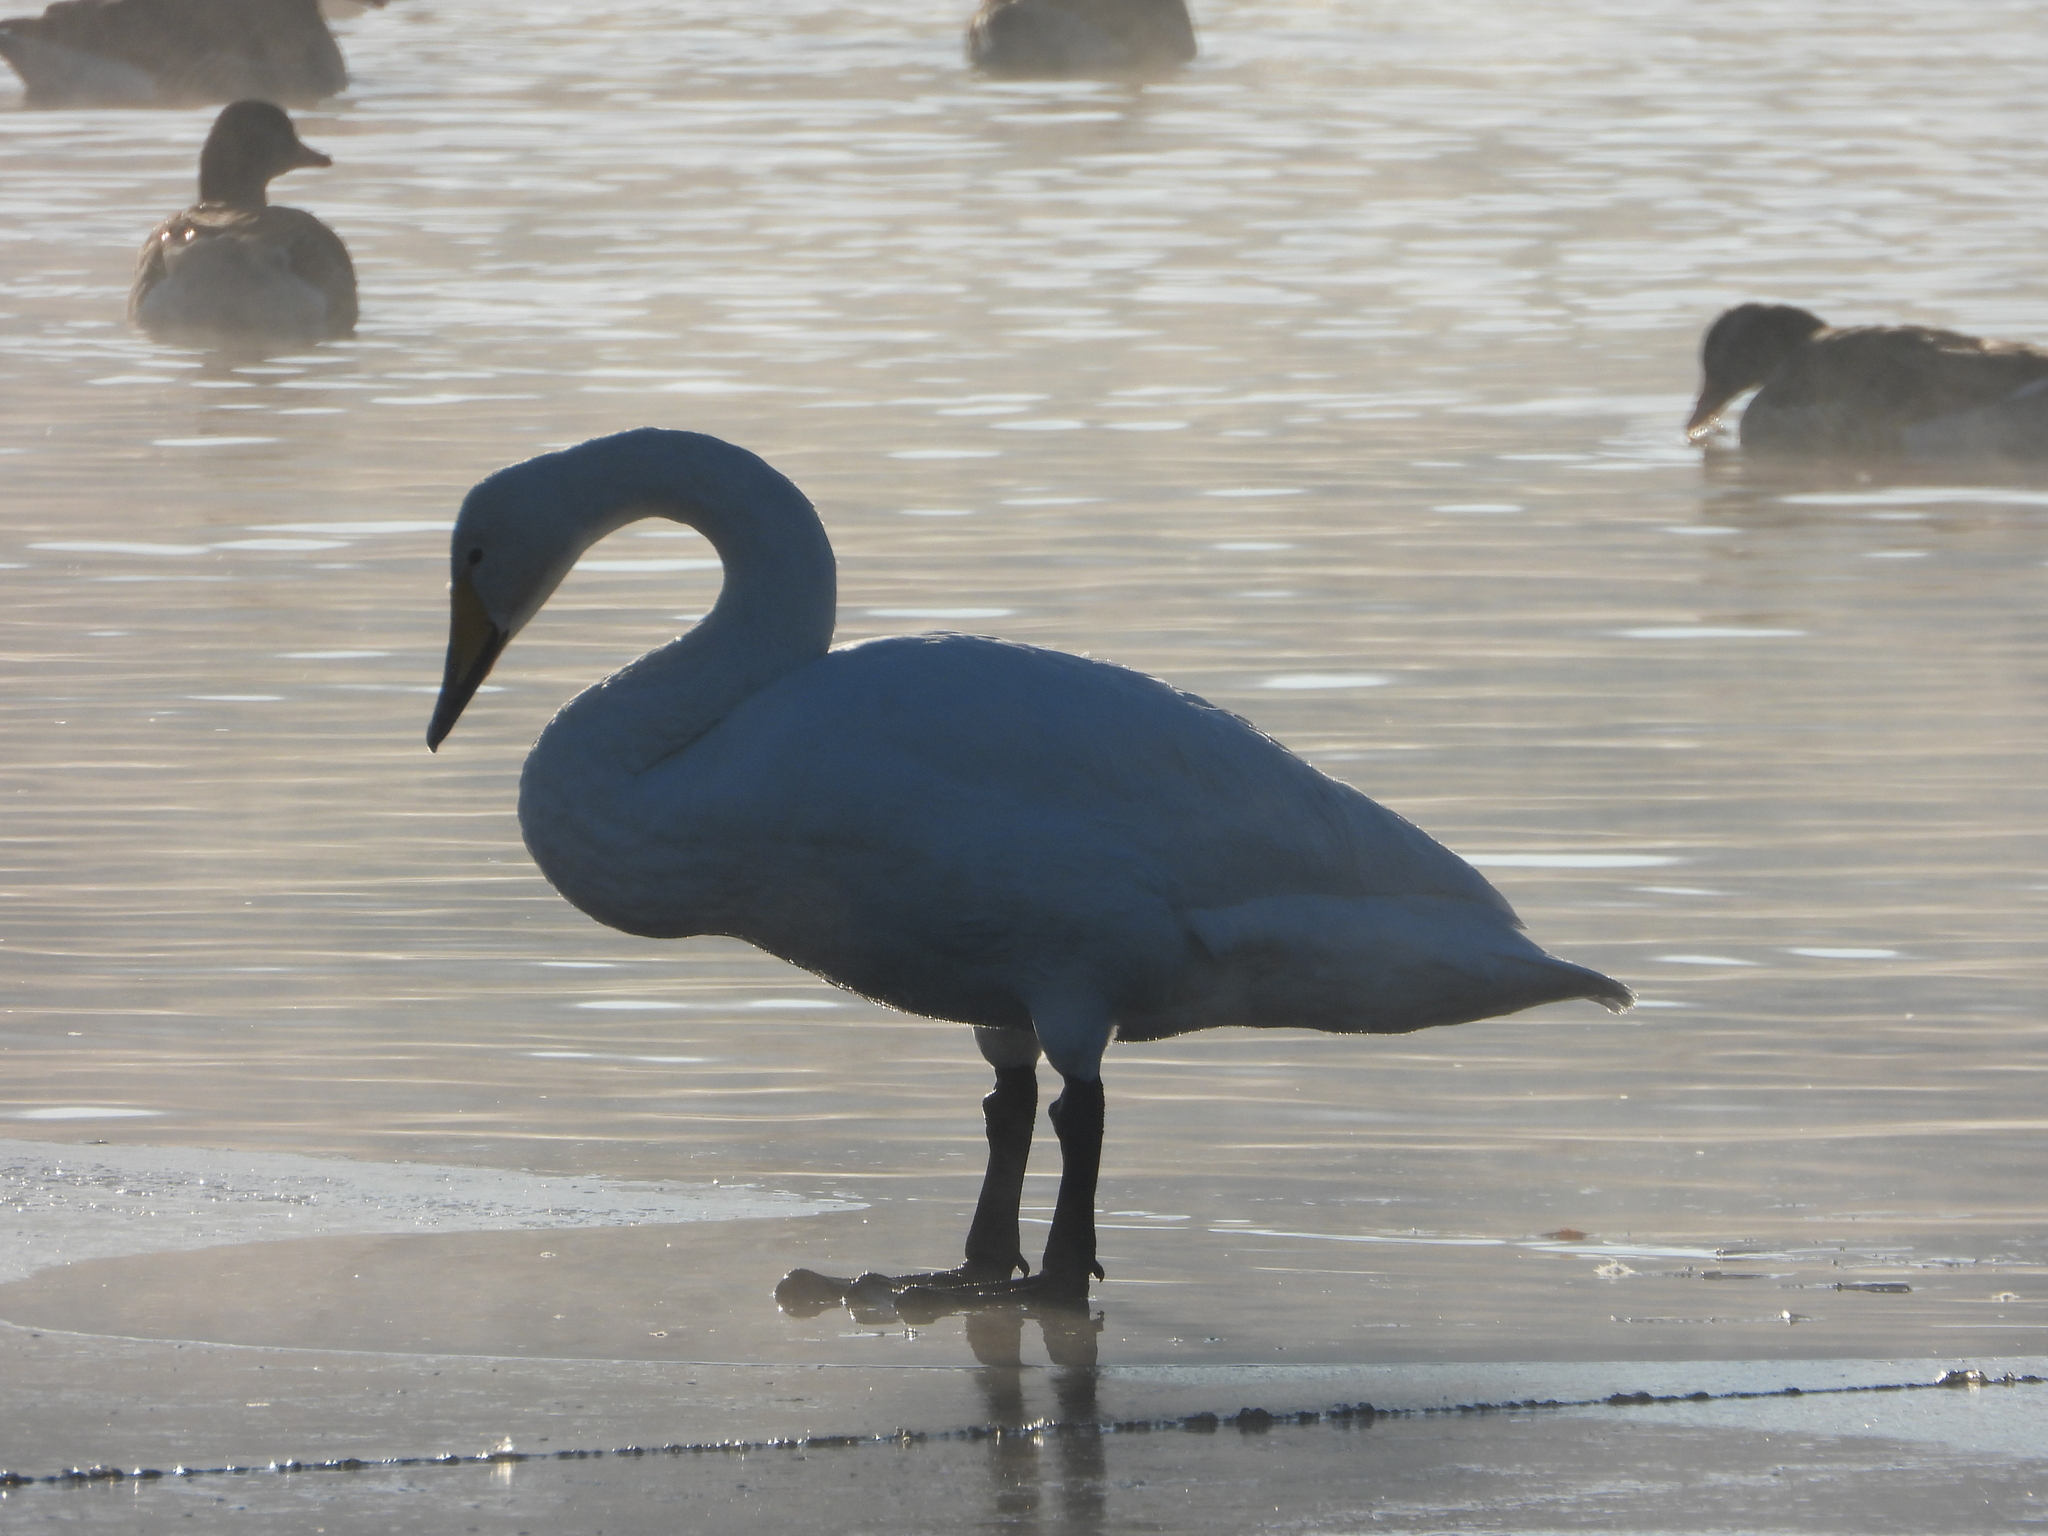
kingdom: Animalia
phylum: Chordata
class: Aves
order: Anseriformes
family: Anatidae
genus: Cygnus
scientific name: Cygnus cygnus
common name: Whooper swan
